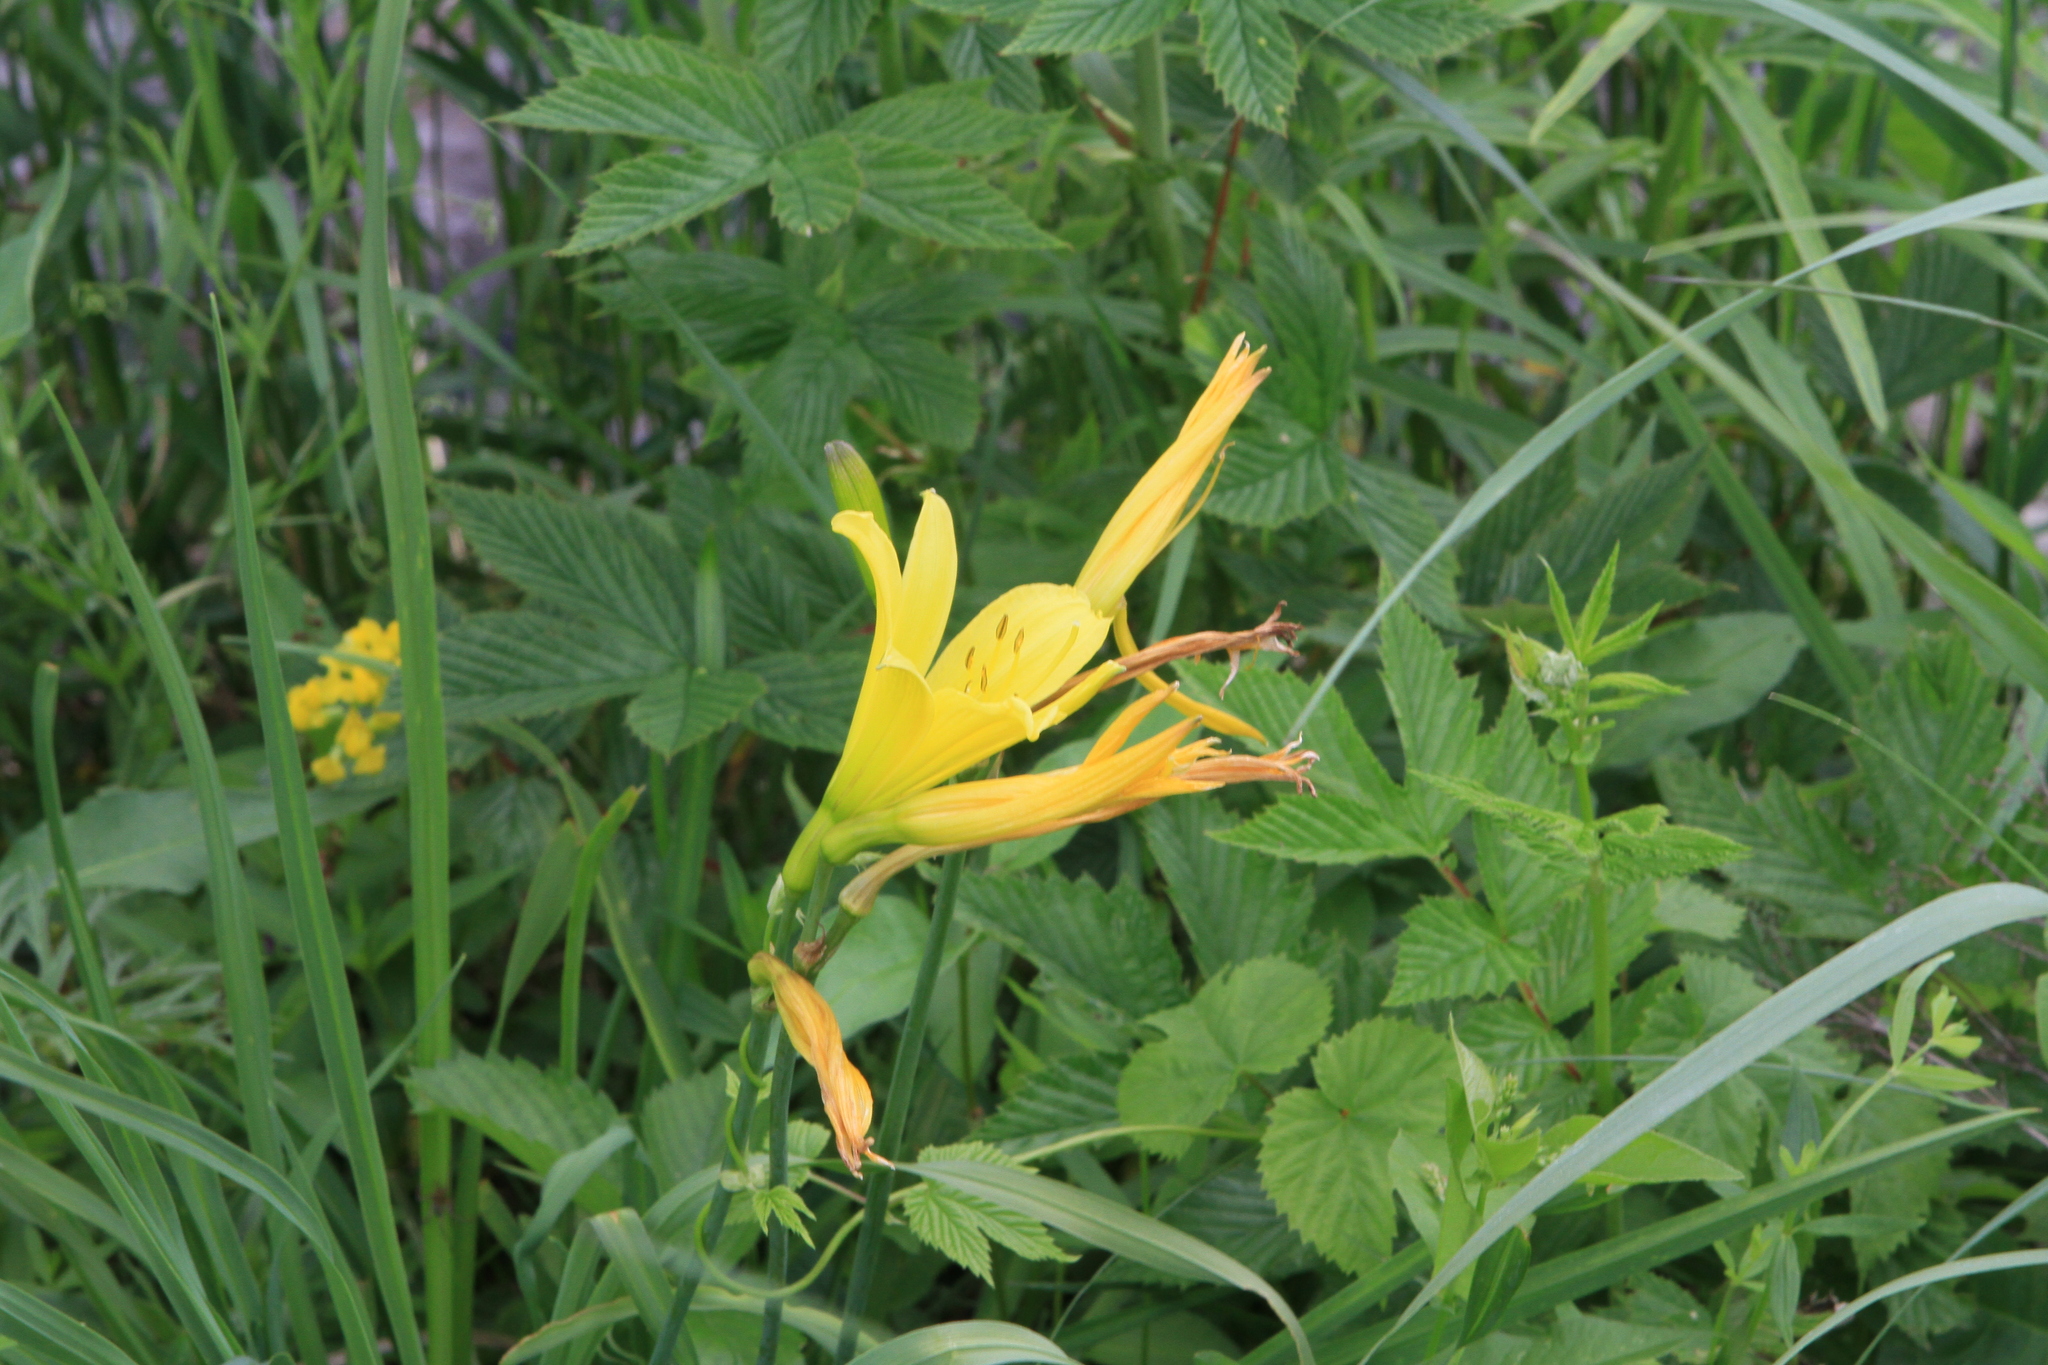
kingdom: Plantae
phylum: Tracheophyta
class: Liliopsida
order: Asparagales
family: Asphodelaceae
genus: Hemerocallis
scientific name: Hemerocallis minor
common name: Small daylily
